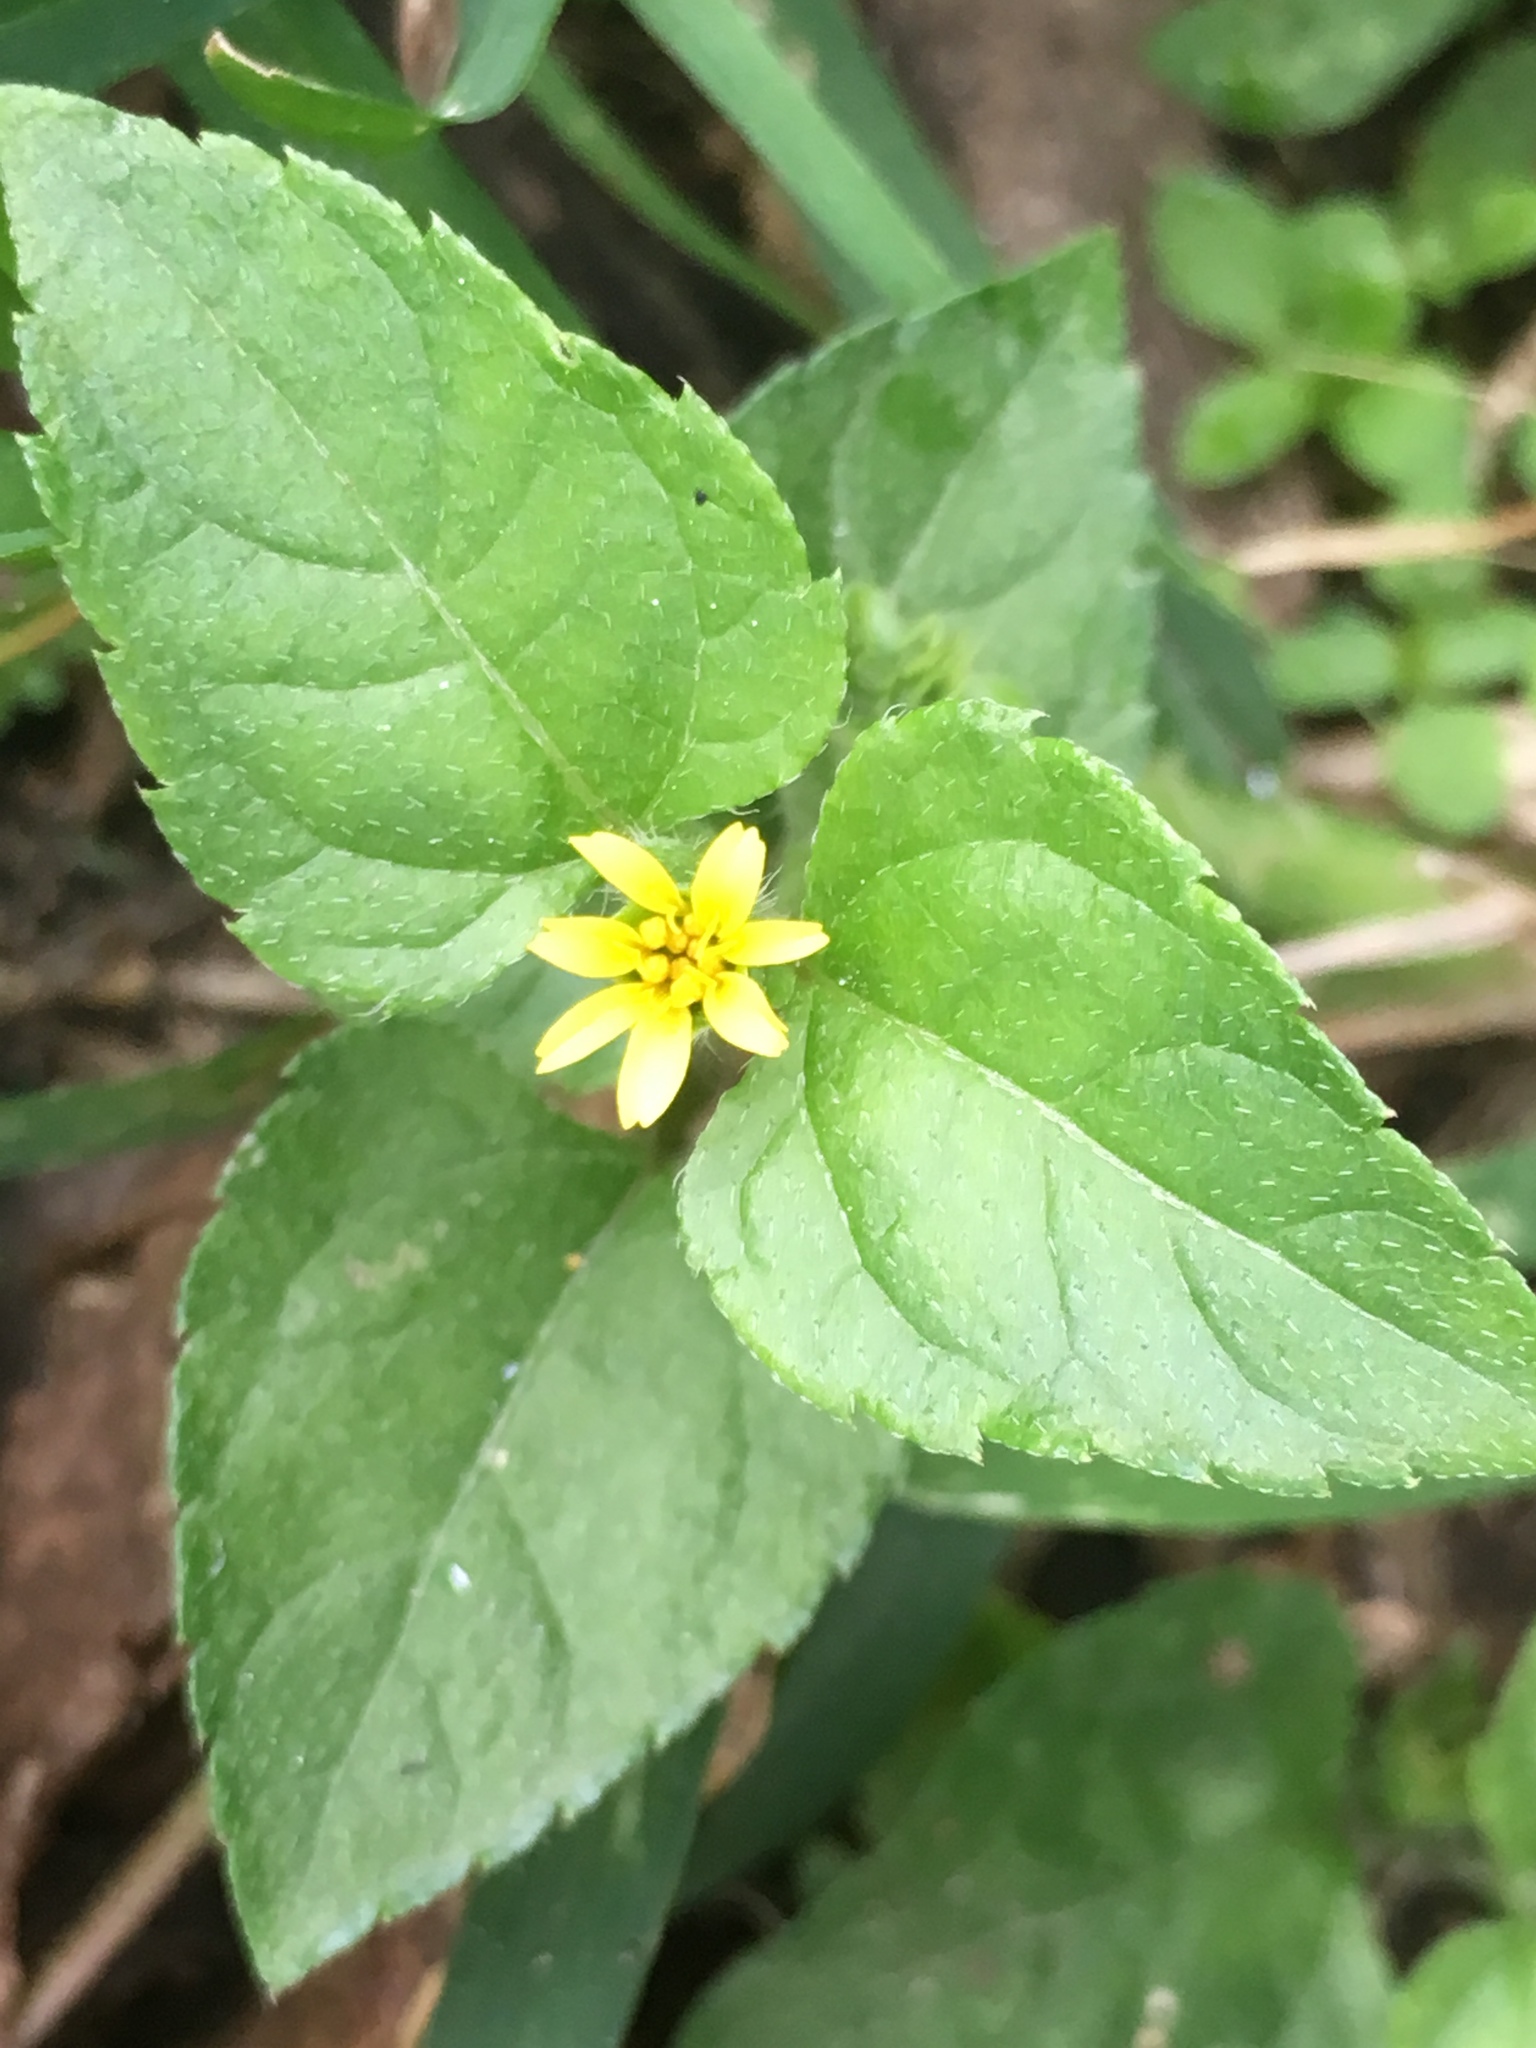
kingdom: Plantae
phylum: Tracheophyta
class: Magnoliopsida
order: Asterales
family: Asteraceae
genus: Calyptocarpus
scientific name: Calyptocarpus vialis
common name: Straggler daisy
